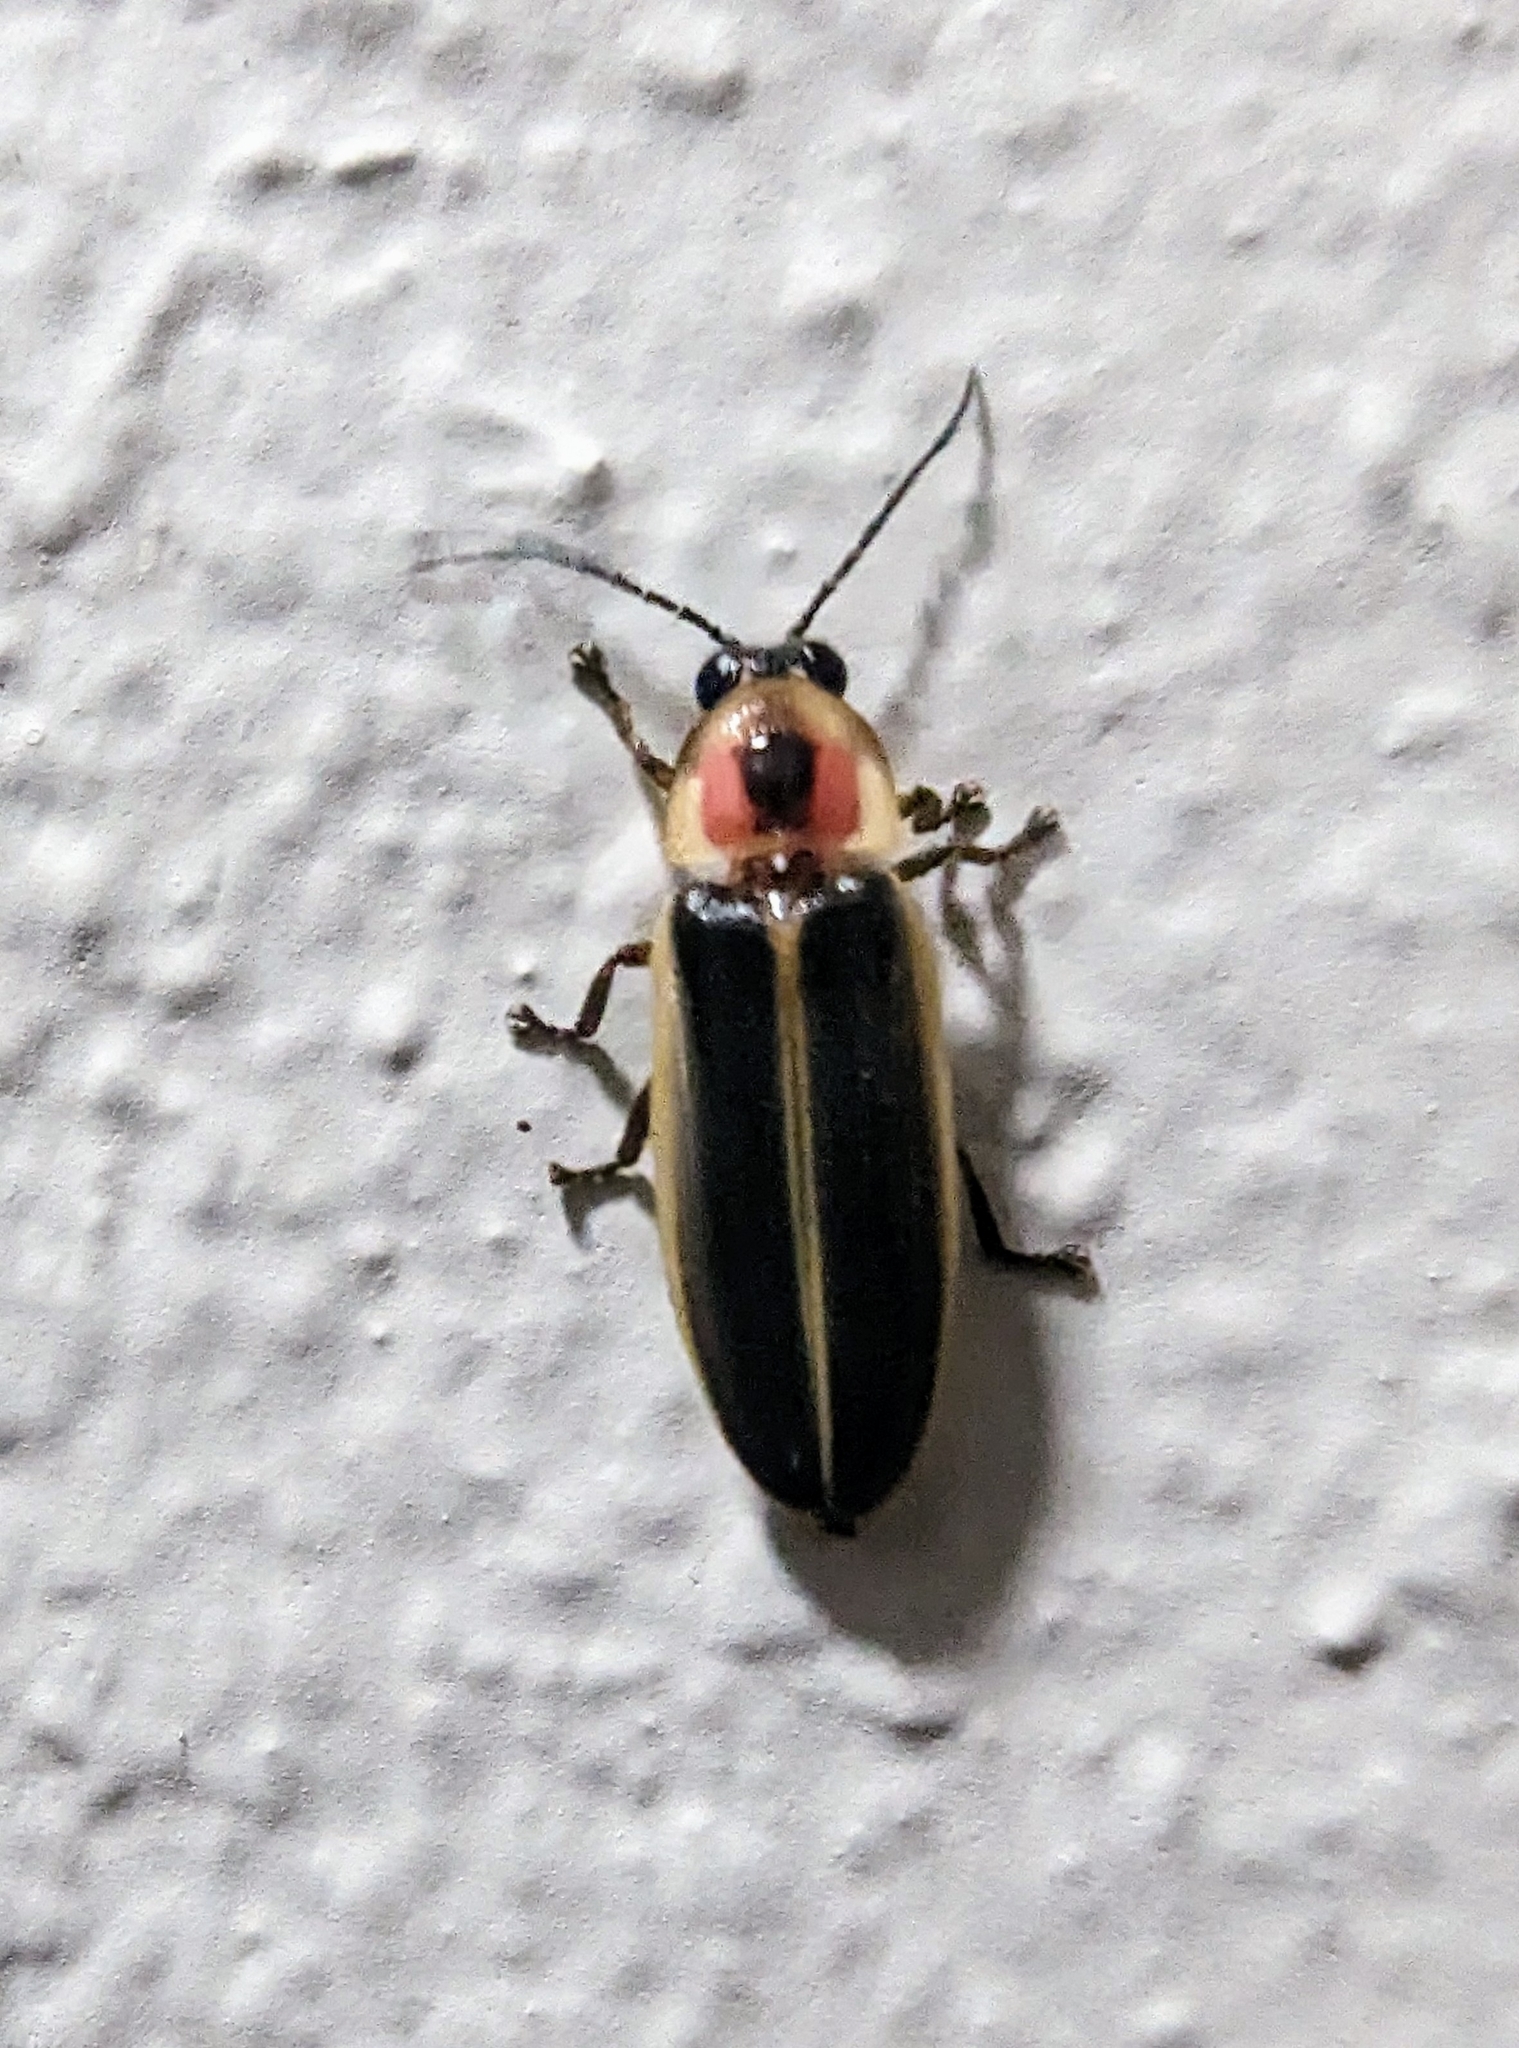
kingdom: Animalia
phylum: Arthropoda
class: Insecta
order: Coleoptera
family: Lampyridae
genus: Photinus
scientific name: Photinus pyralis
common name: Big dipper firefly
